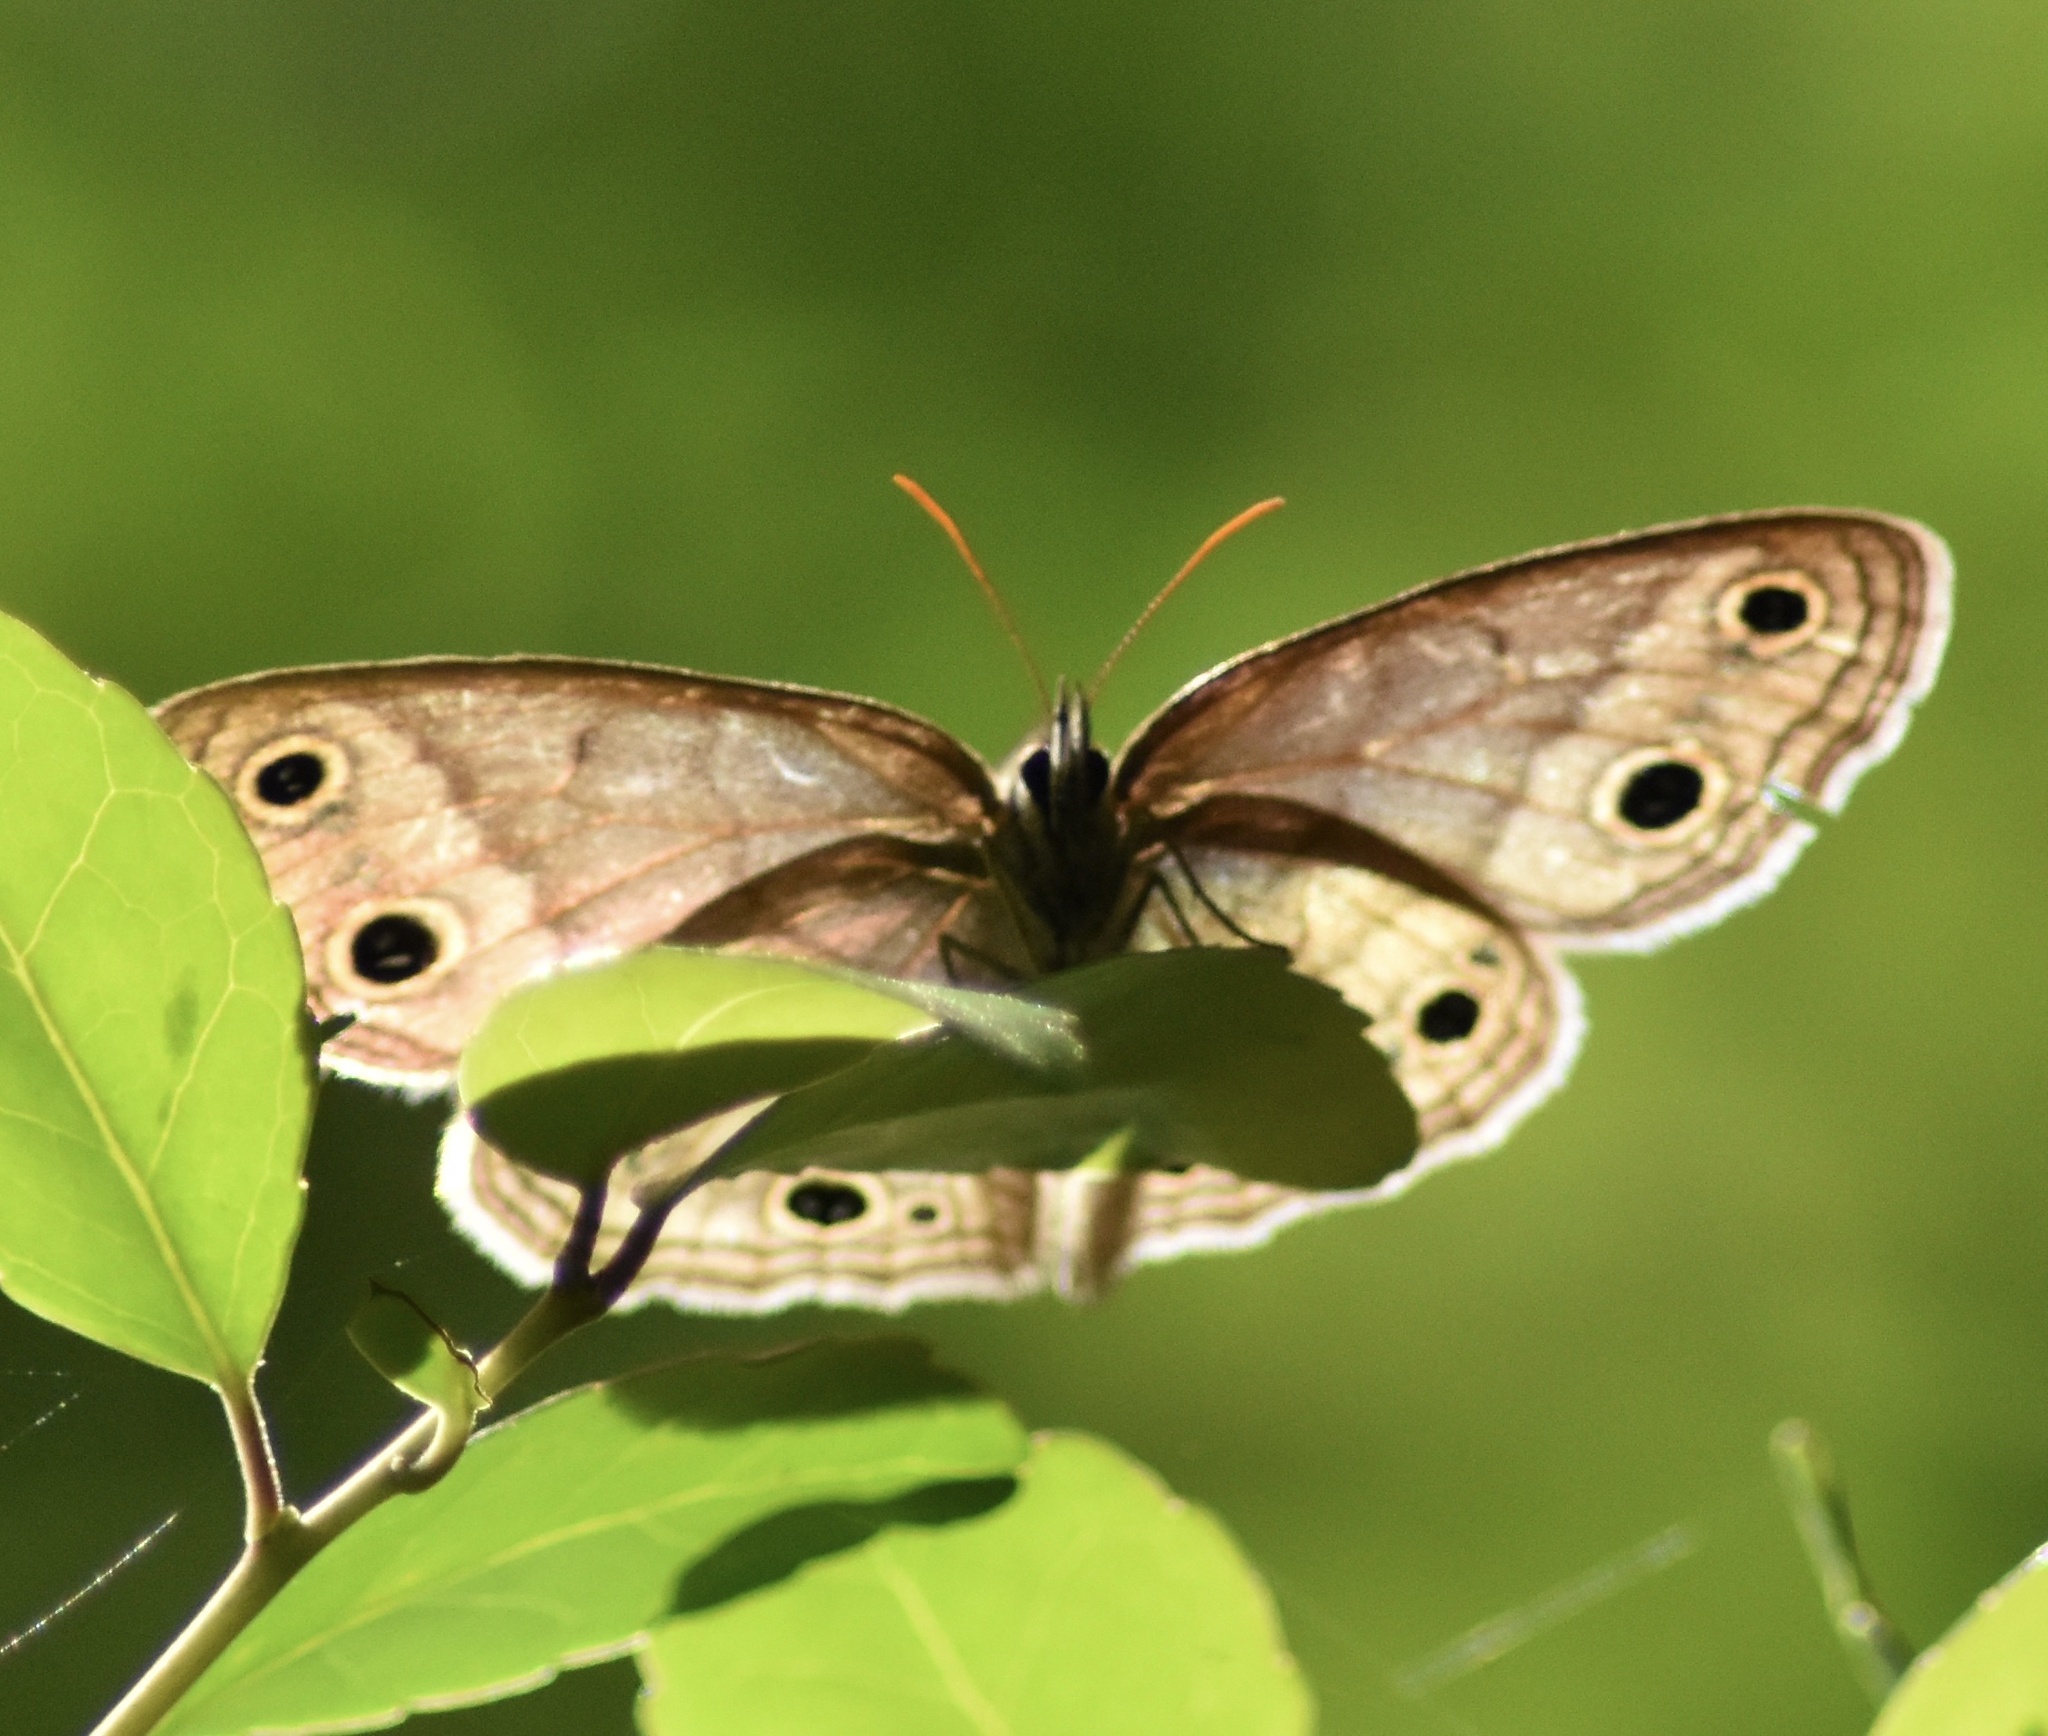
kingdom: Animalia
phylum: Arthropoda
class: Insecta
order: Lepidoptera
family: Nymphalidae
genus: Euptychia
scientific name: Euptychia cymela
